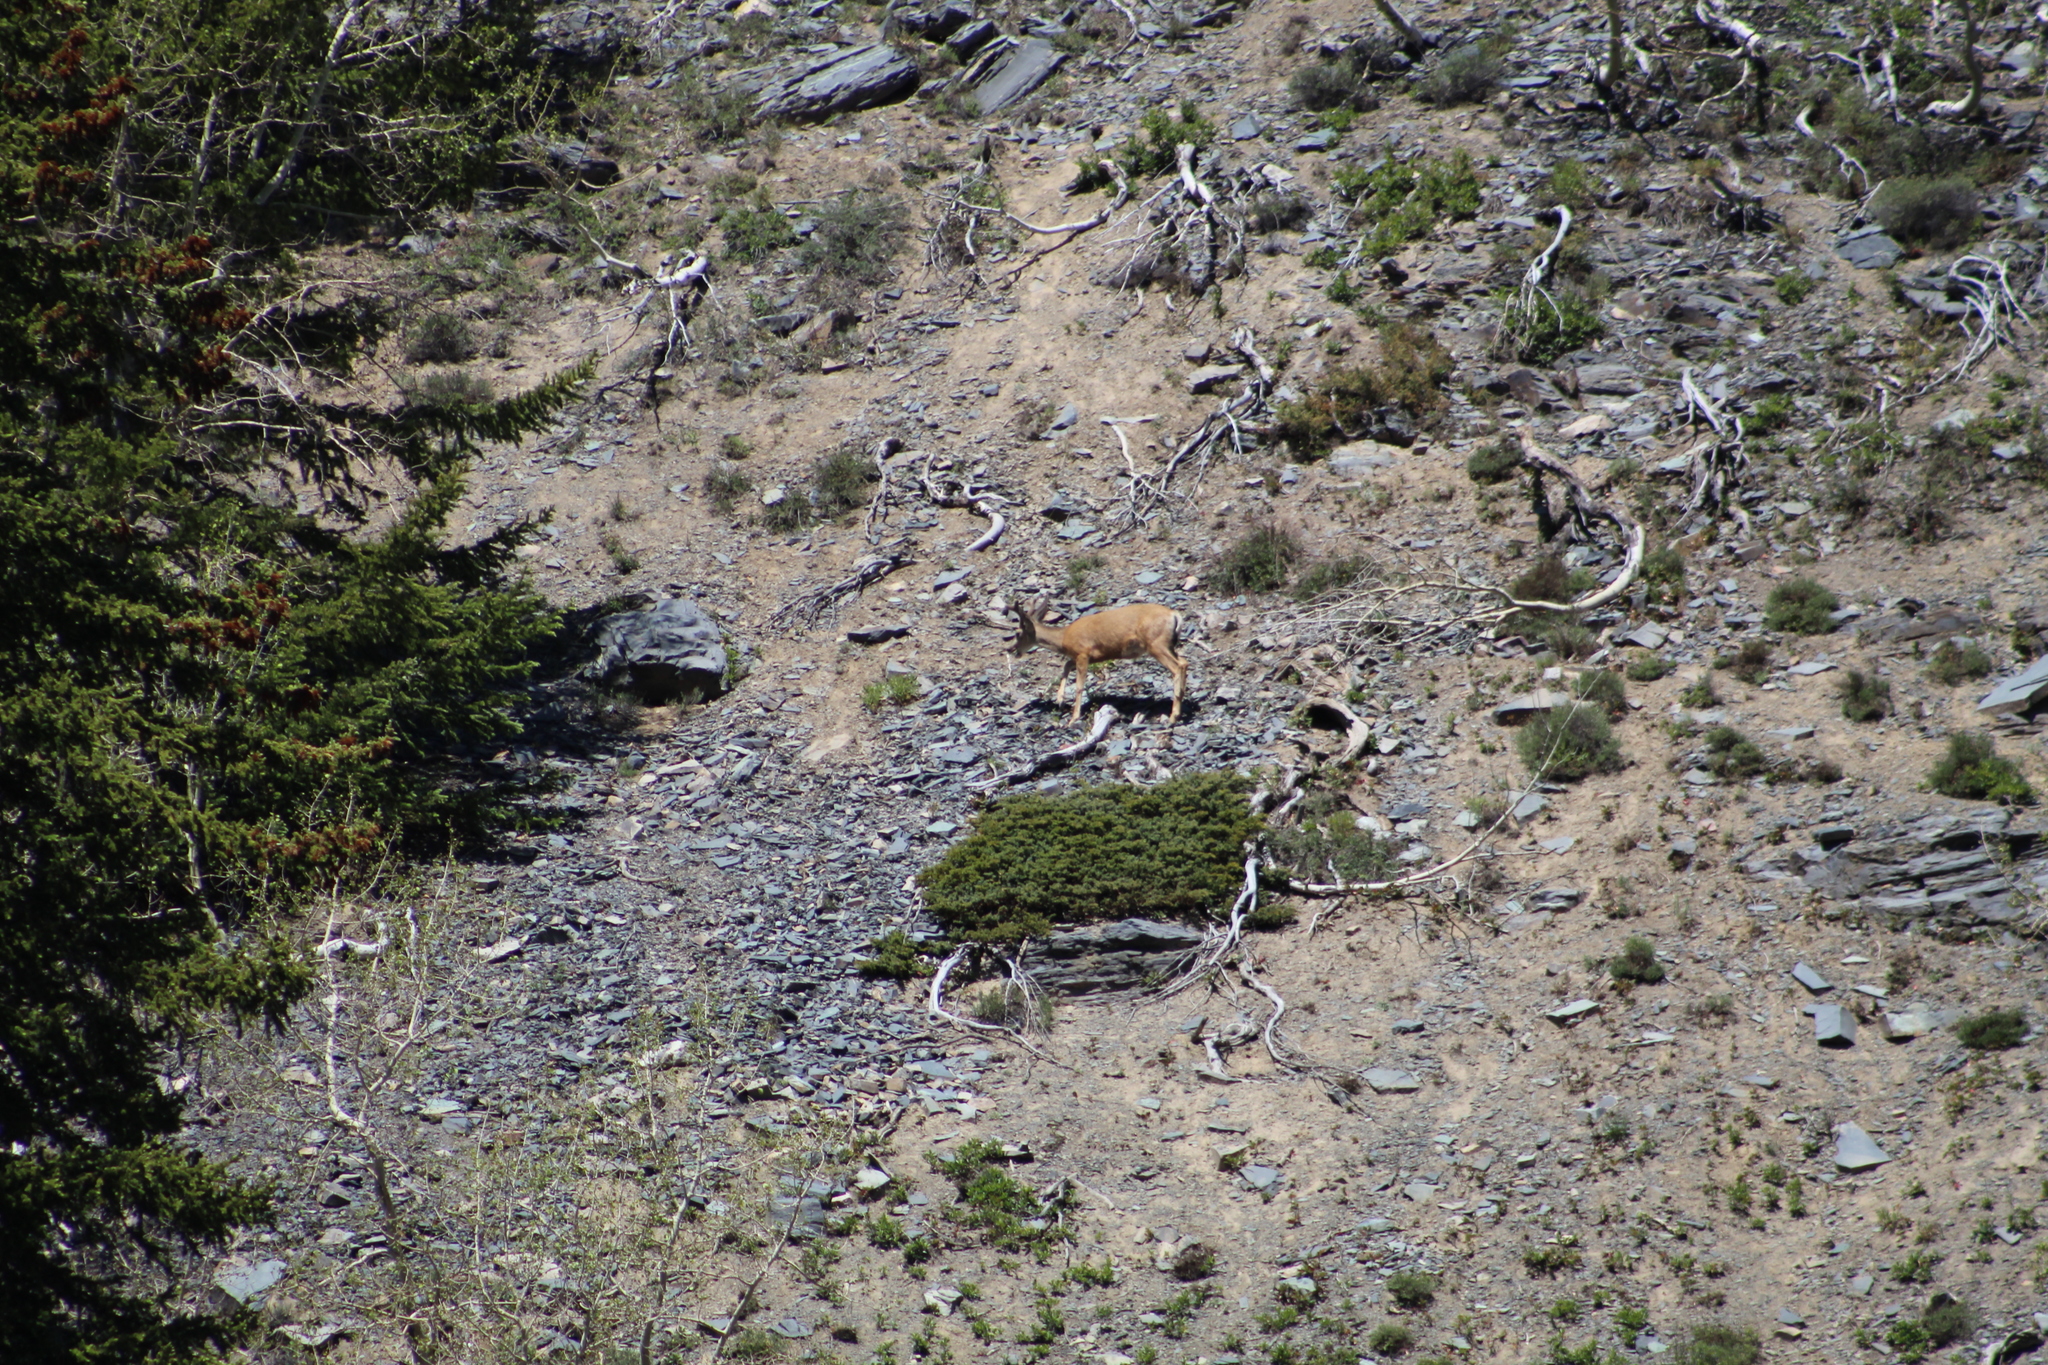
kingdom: Animalia
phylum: Chordata
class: Mammalia
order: Artiodactyla
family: Cervidae
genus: Odocoileus
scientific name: Odocoileus hemionus
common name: Mule deer
